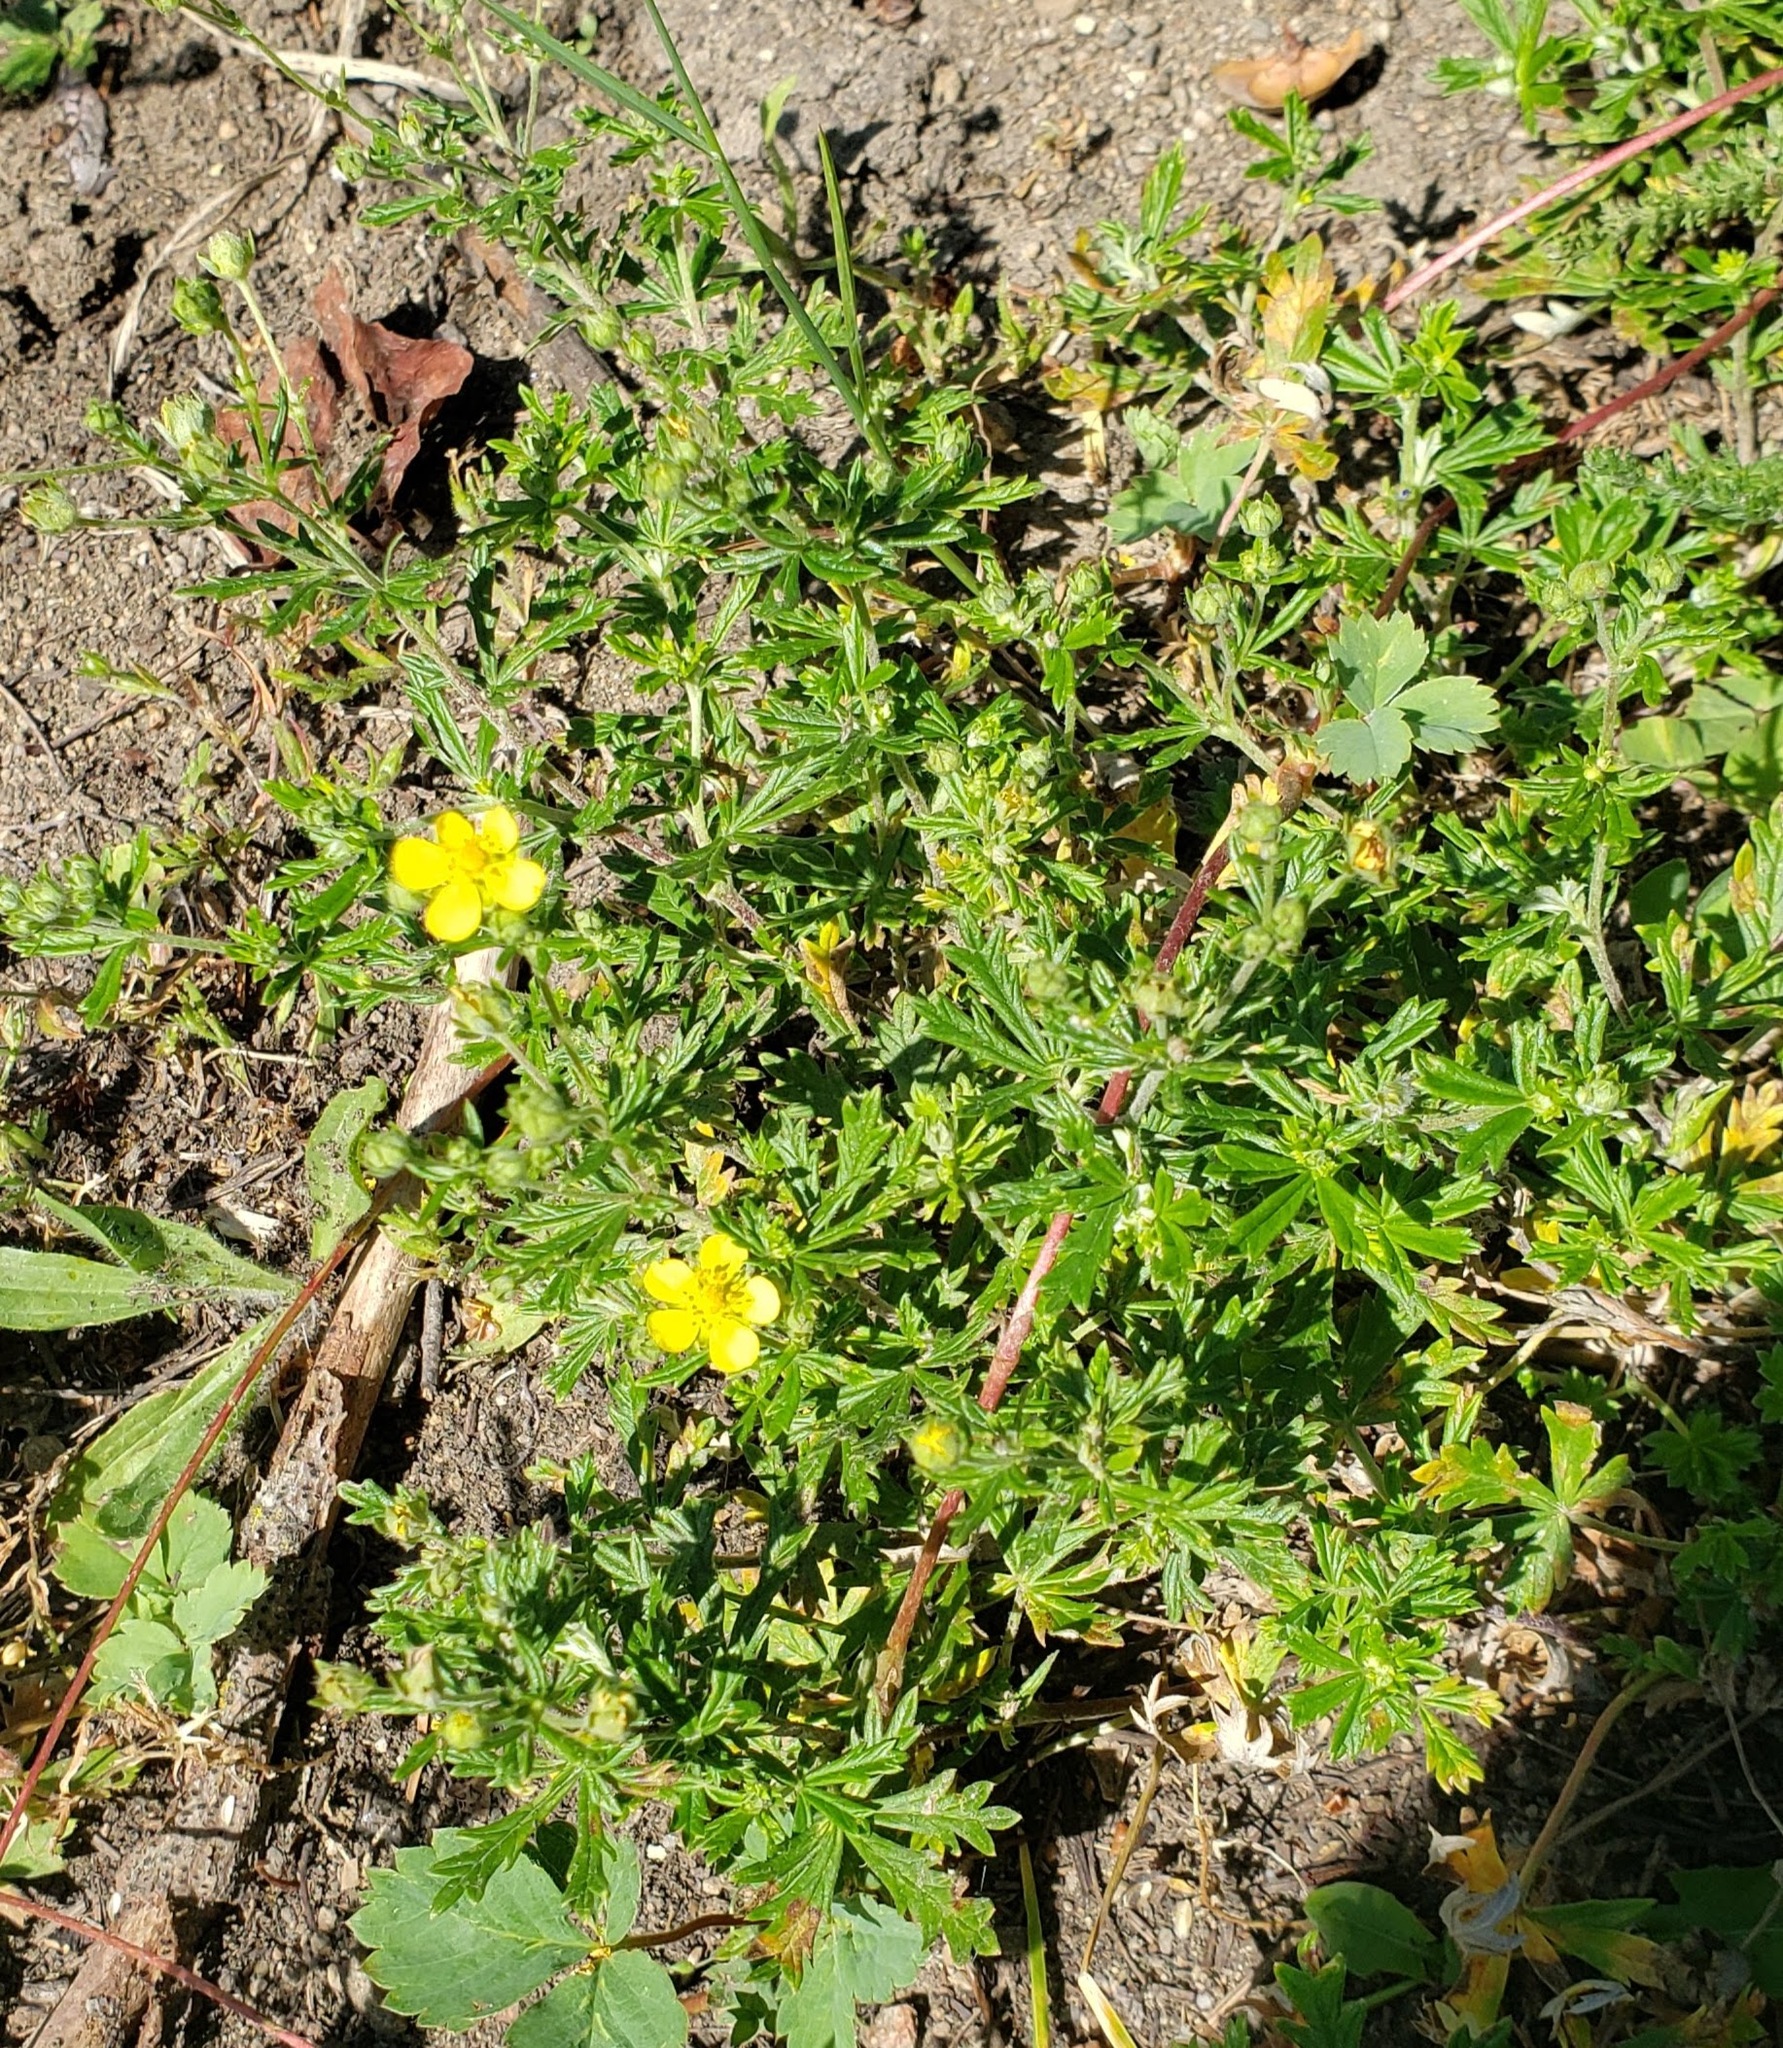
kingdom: Plantae
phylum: Tracheophyta
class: Magnoliopsida
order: Rosales
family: Rosaceae
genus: Potentilla
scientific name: Potentilla argentea
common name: Hoary cinquefoil
